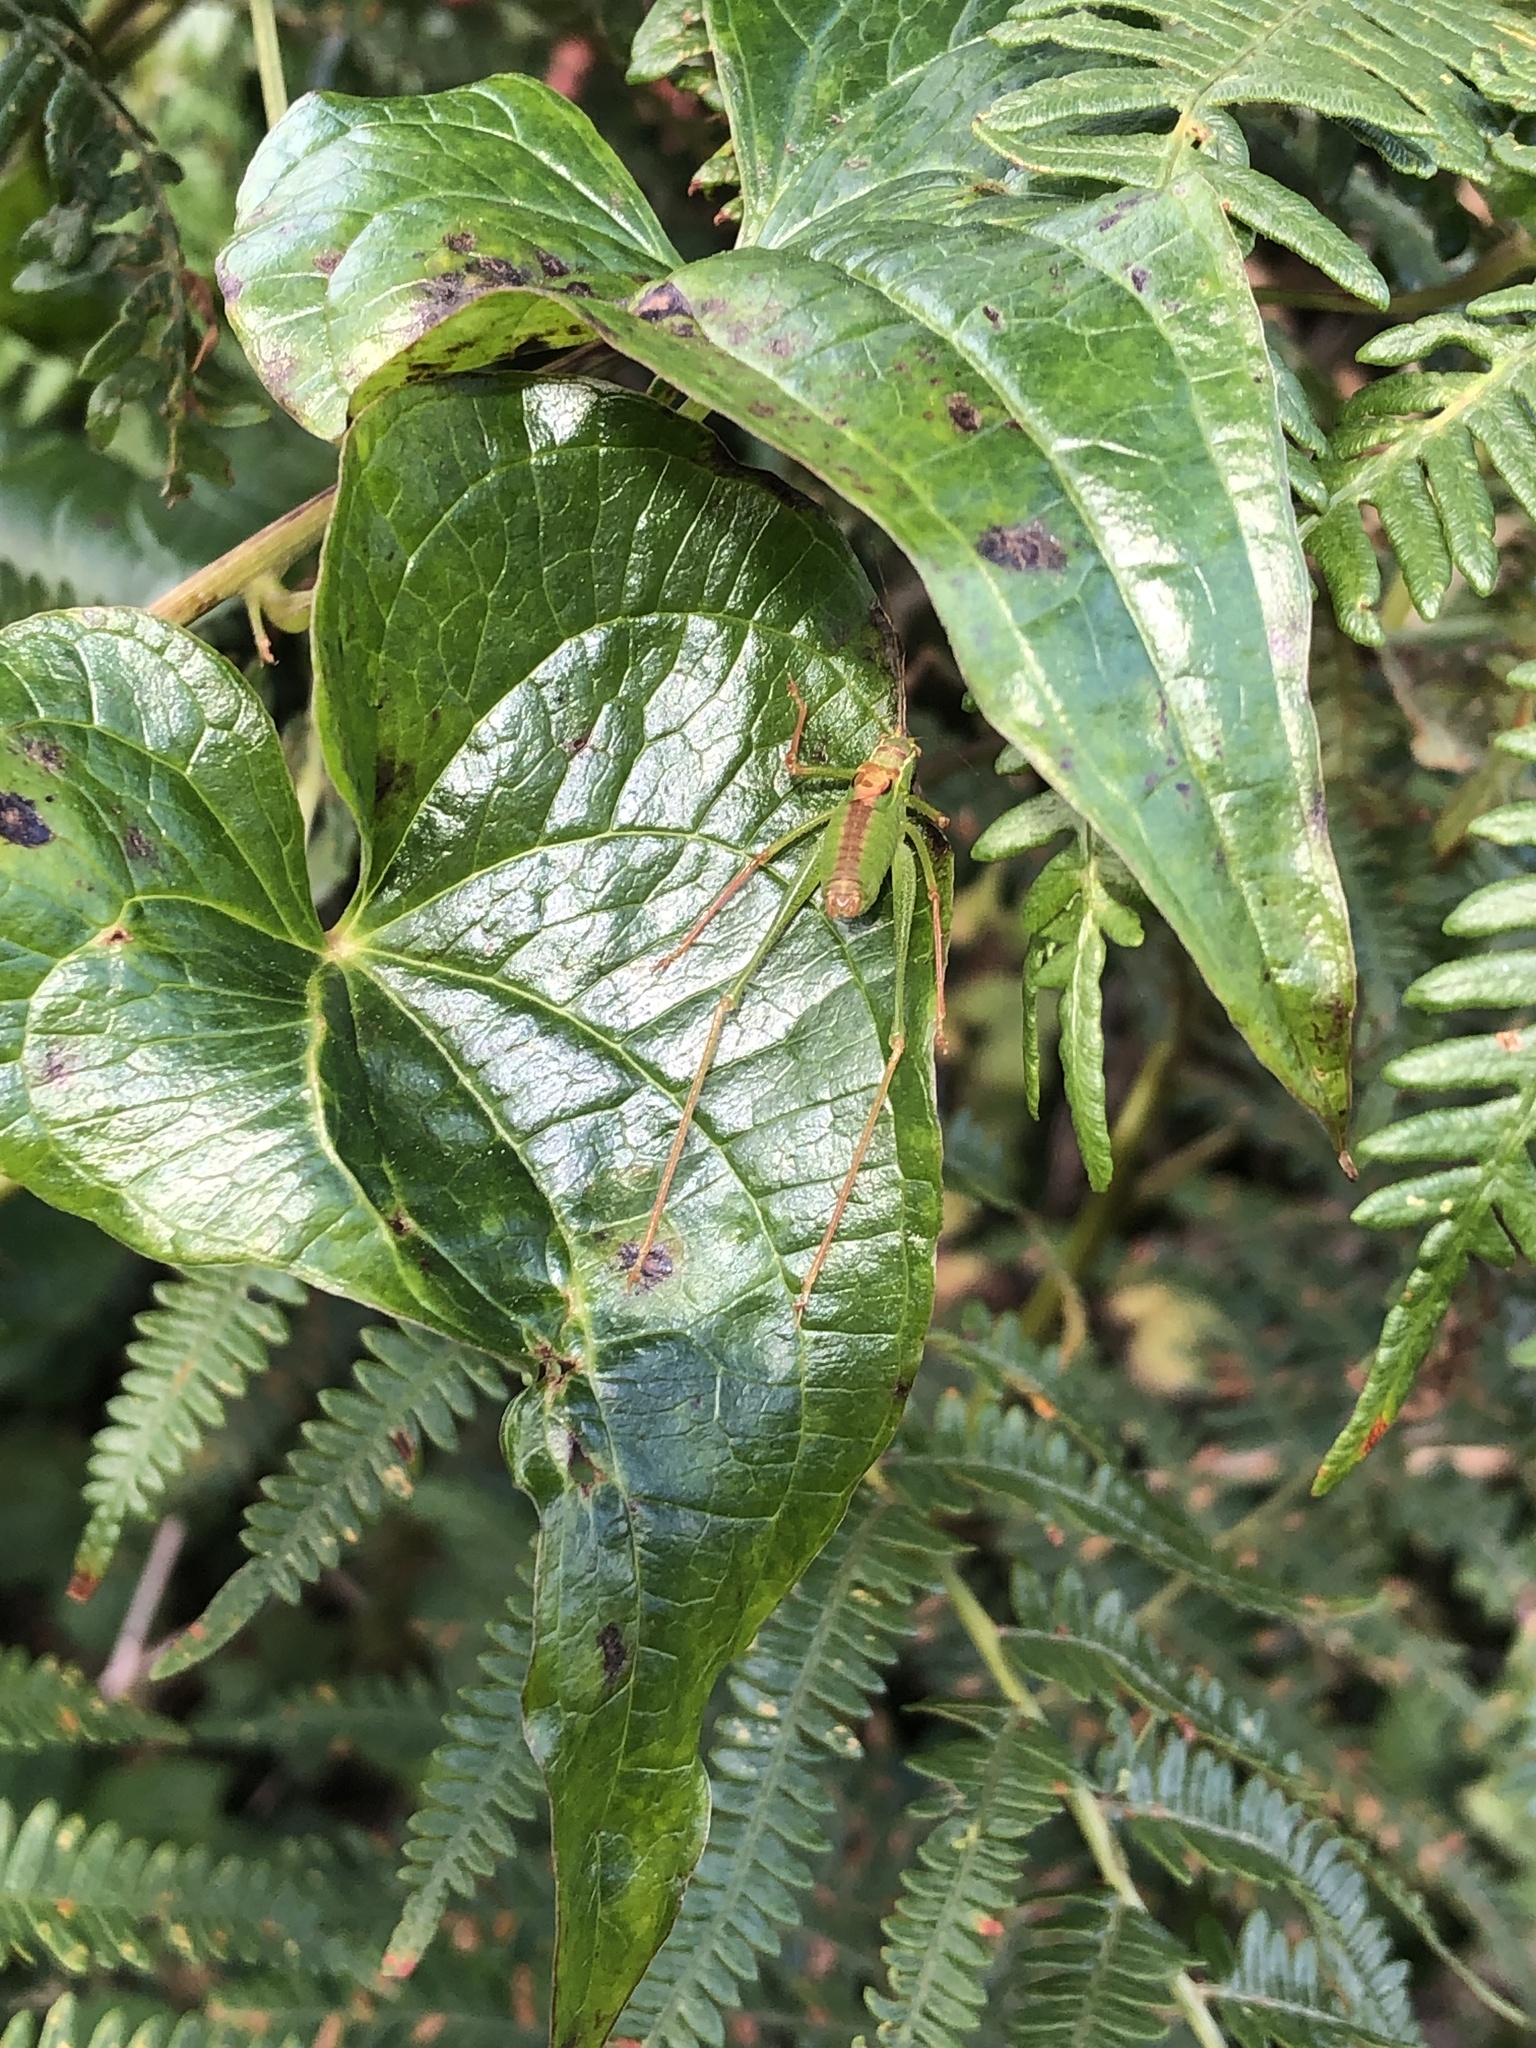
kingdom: Animalia
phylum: Arthropoda
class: Insecta
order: Orthoptera
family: Tettigoniidae
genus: Leptophyes
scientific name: Leptophyes punctatissima
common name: Speckled bush-cricket
